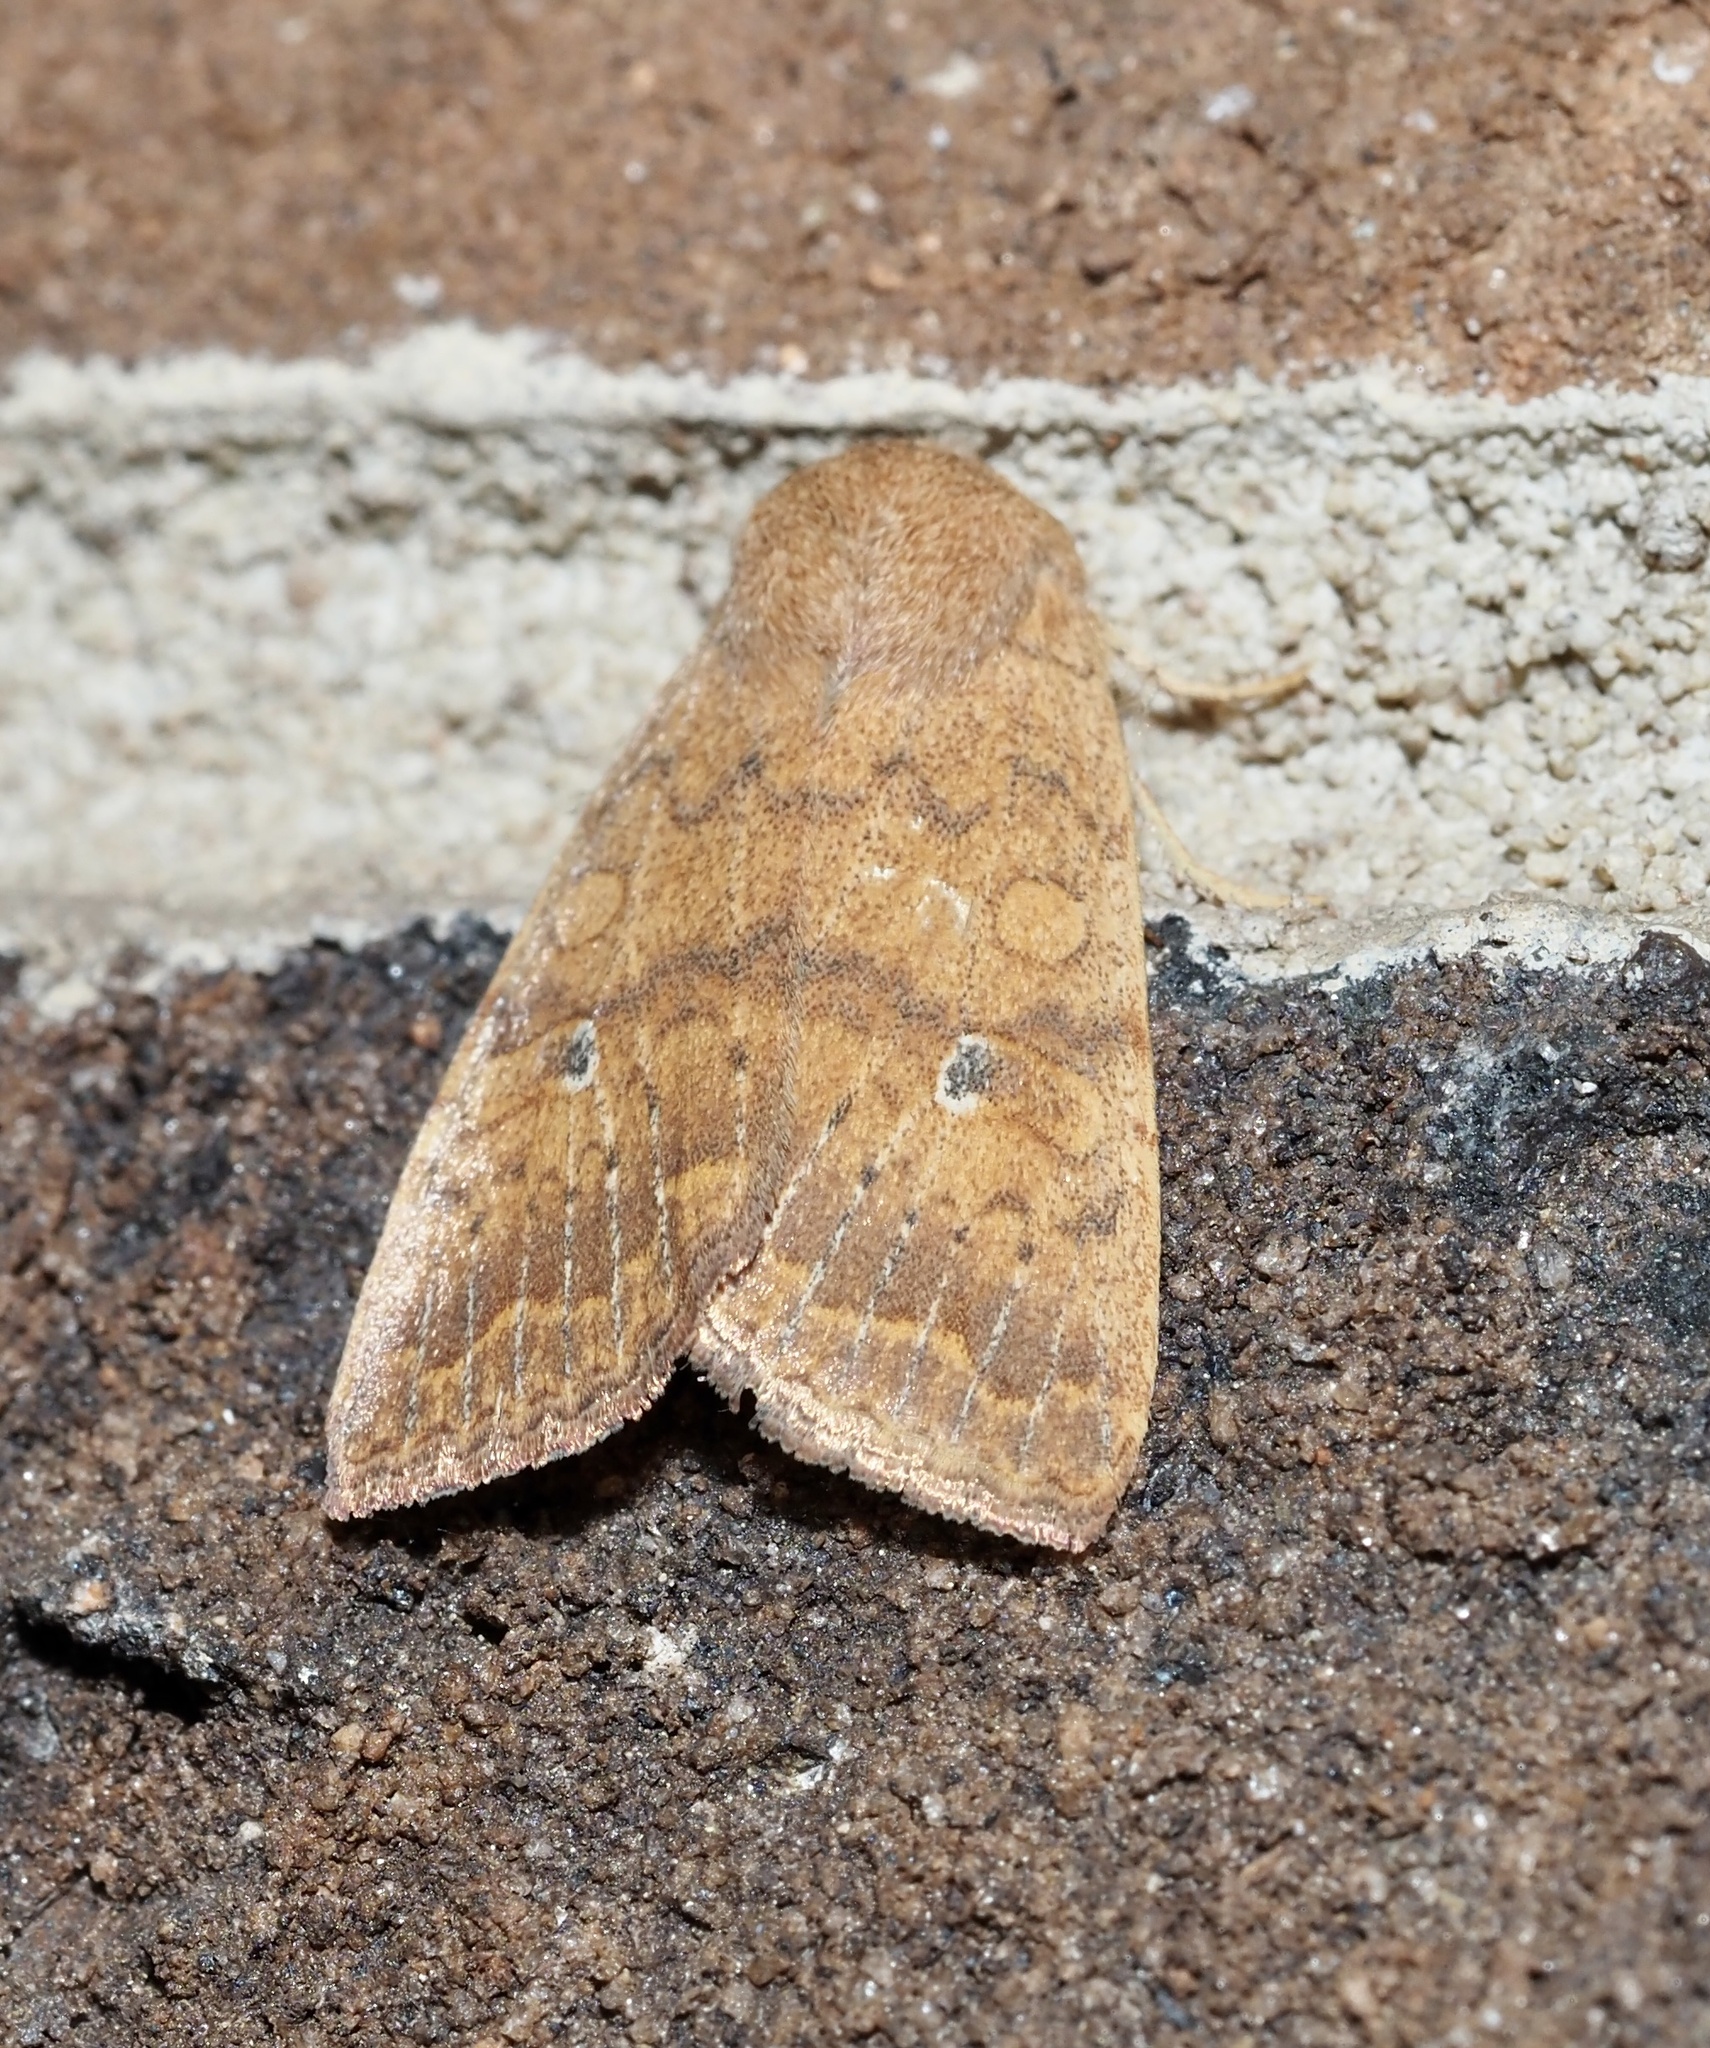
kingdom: Animalia
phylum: Arthropoda
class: Insecta
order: Lepidoptera
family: Noctuidae
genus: Agrochola
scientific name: Agrochola bicolorago
